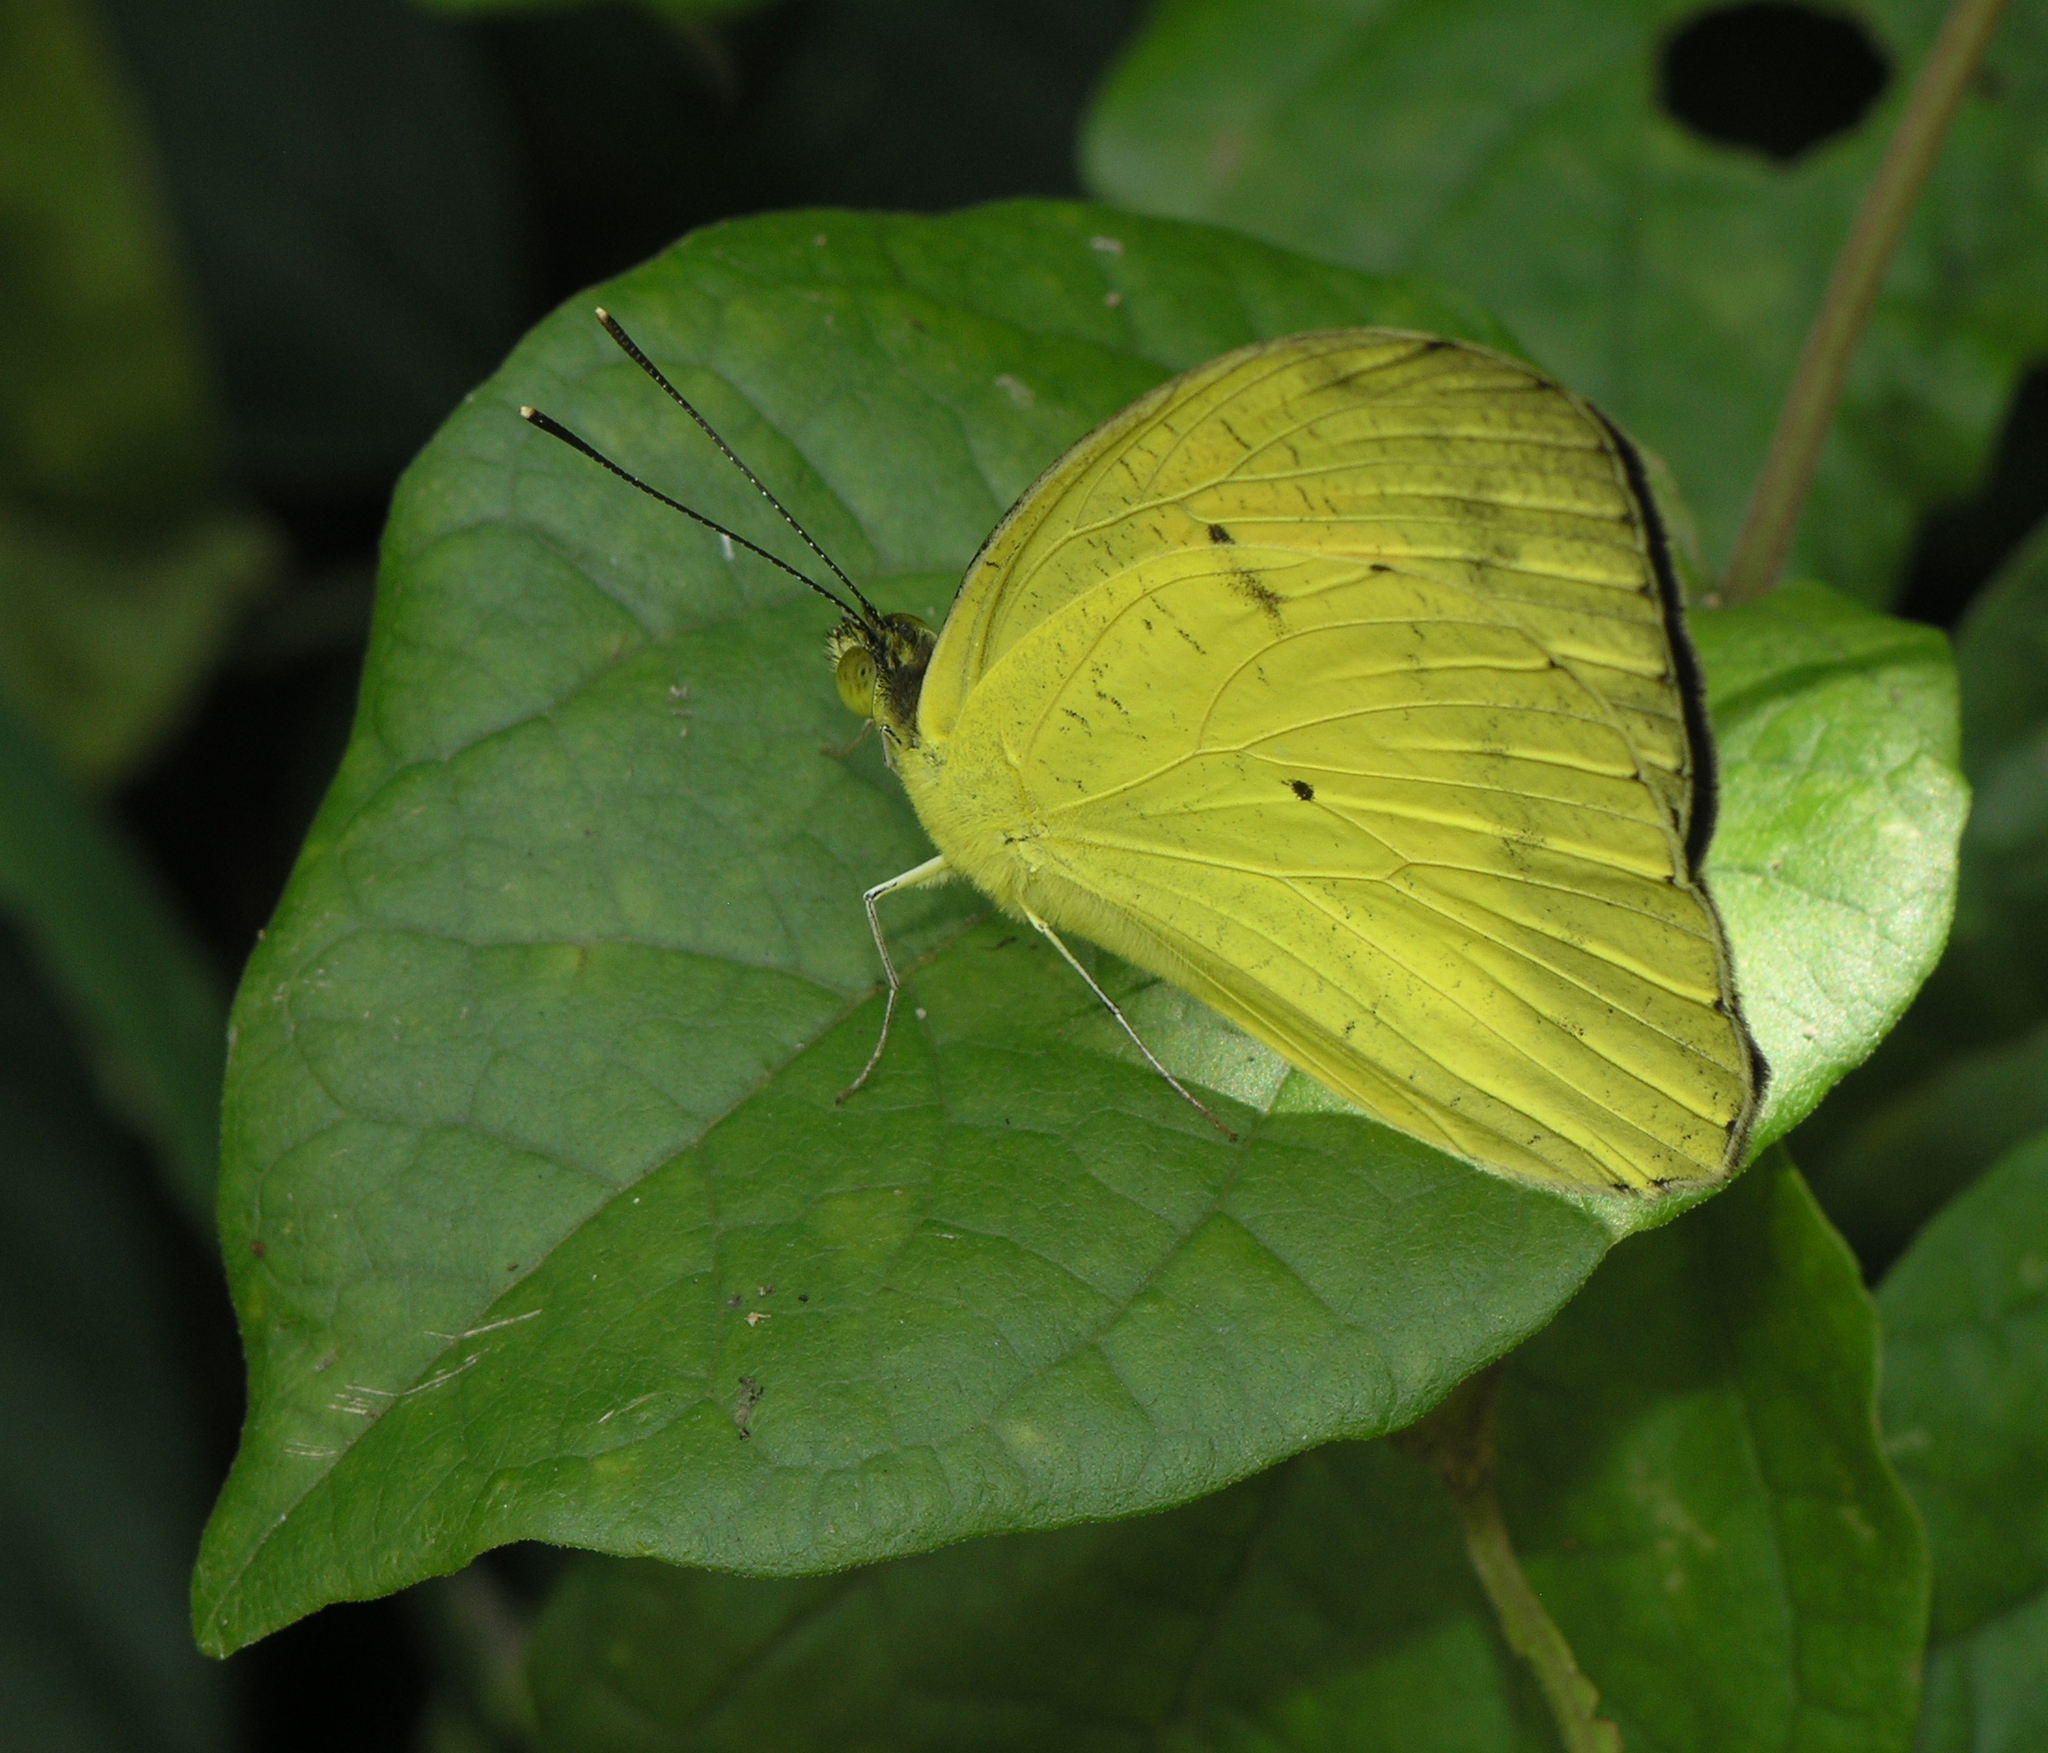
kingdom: Animalia
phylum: Arthropoda
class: Insecta
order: Lepidoptera
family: Pieridae
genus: Ixias
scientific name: Ixias pyrene
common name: Yellow orange tip
